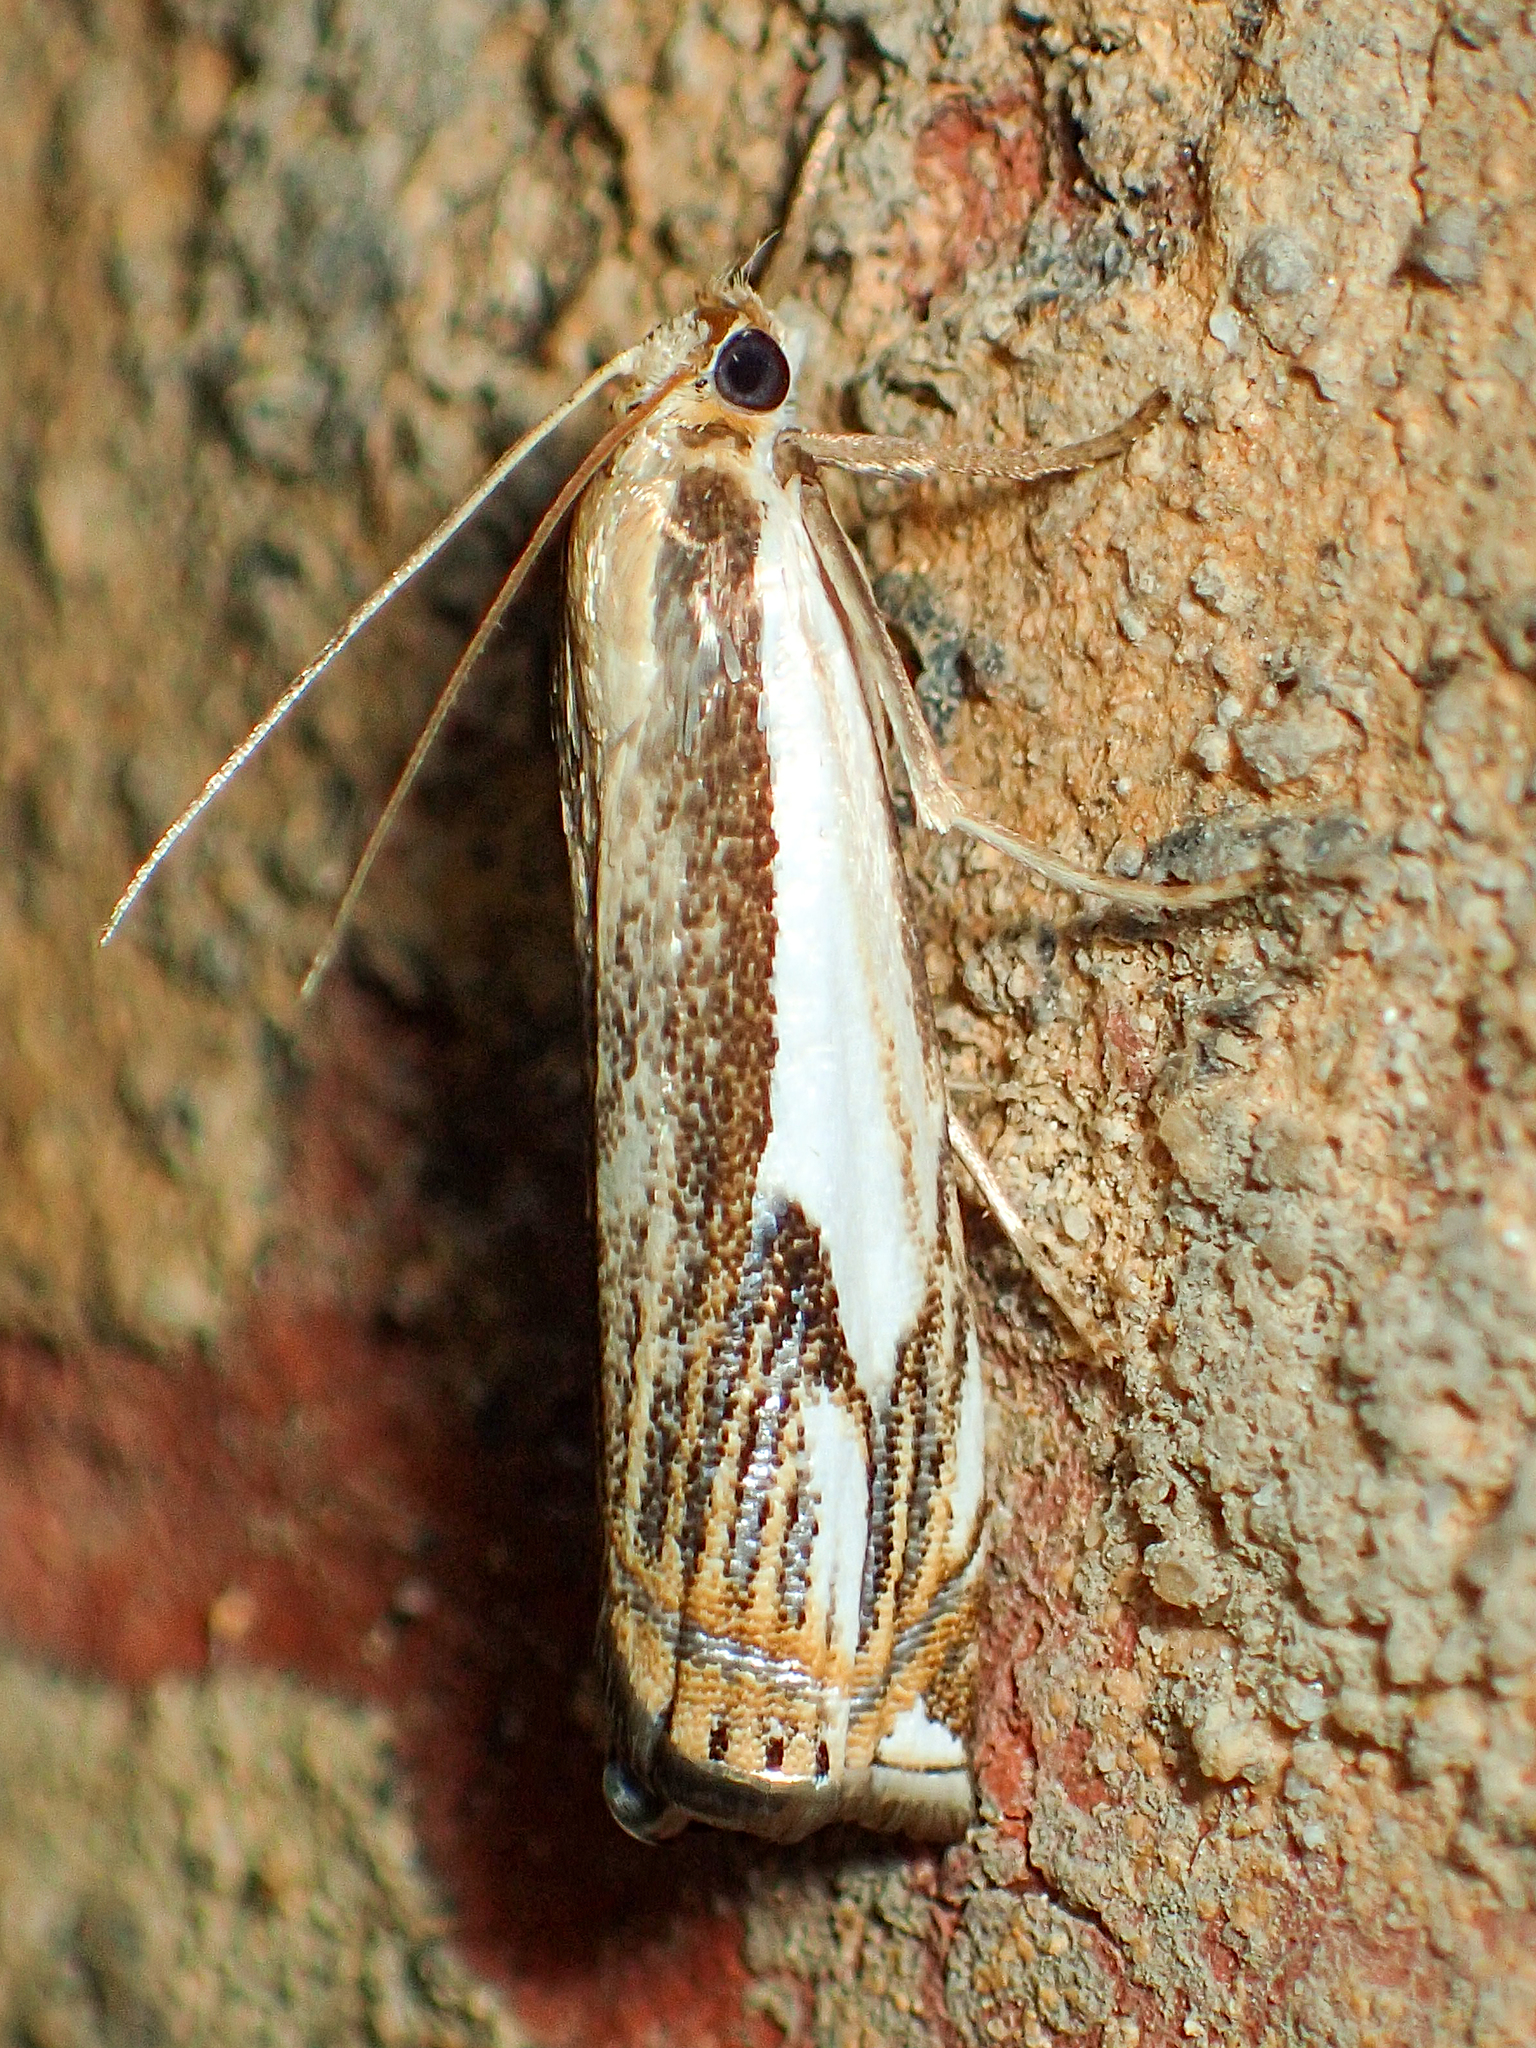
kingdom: Animalia
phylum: Arthropoda
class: Insecta
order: Lepidoptera
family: Crambidae
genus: Crambus
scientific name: Crambus agitatellus
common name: Double-banded grass-veneer
